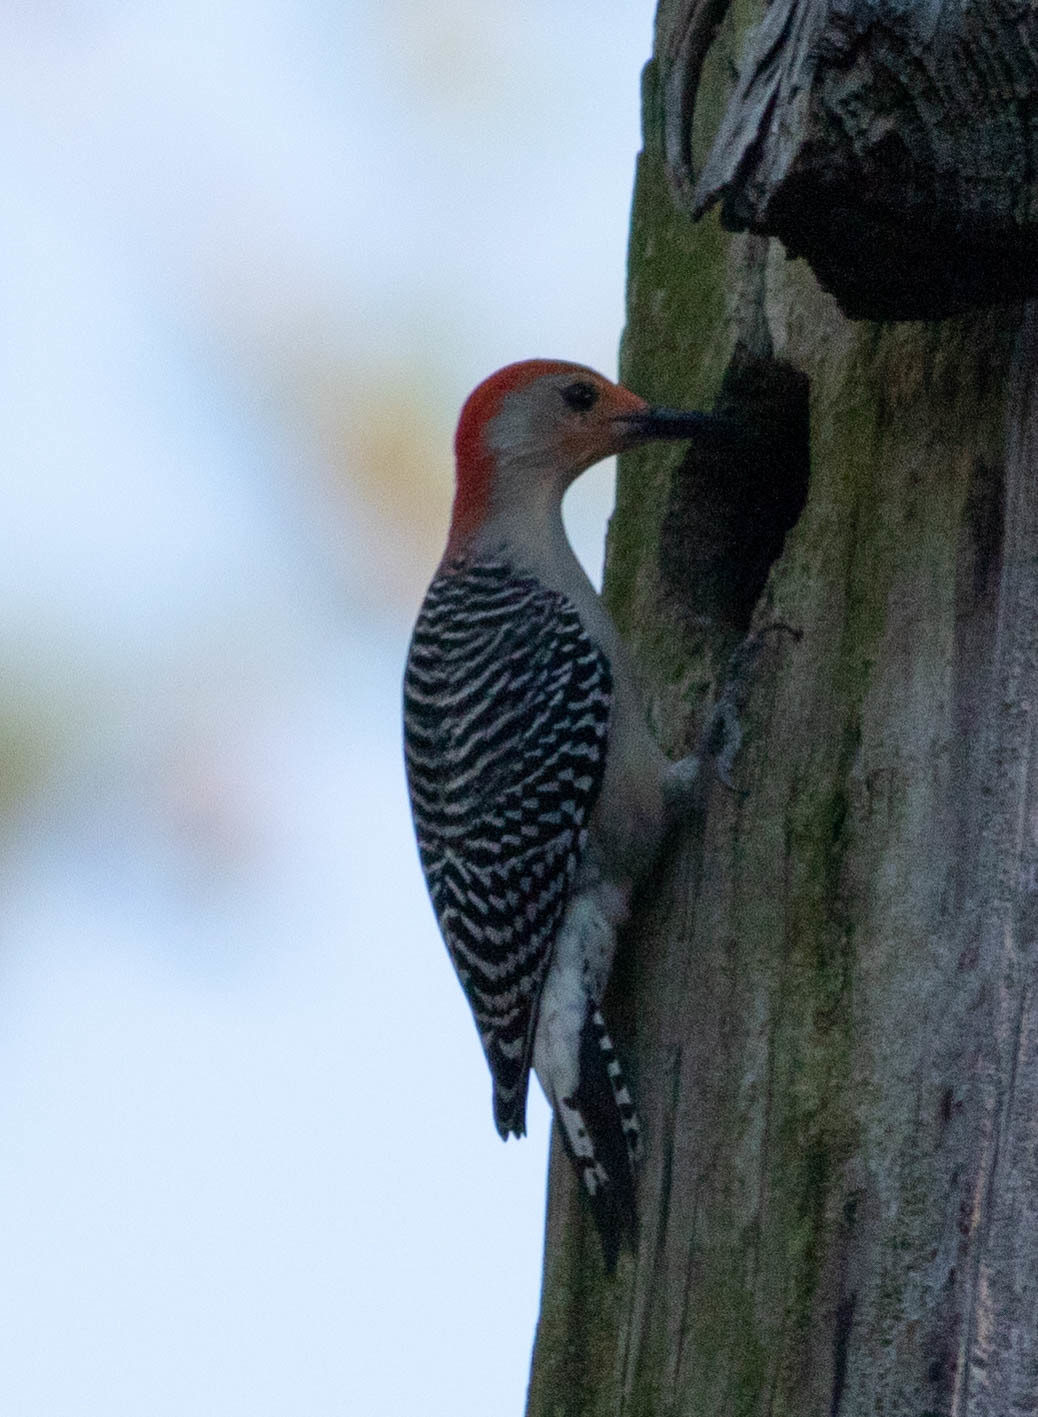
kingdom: Animalia
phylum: Chordata
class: Aves
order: Piciformes
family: Picidae
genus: Melanerpes
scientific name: Melanerpes carolinus
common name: Red-bellied woodpecker
